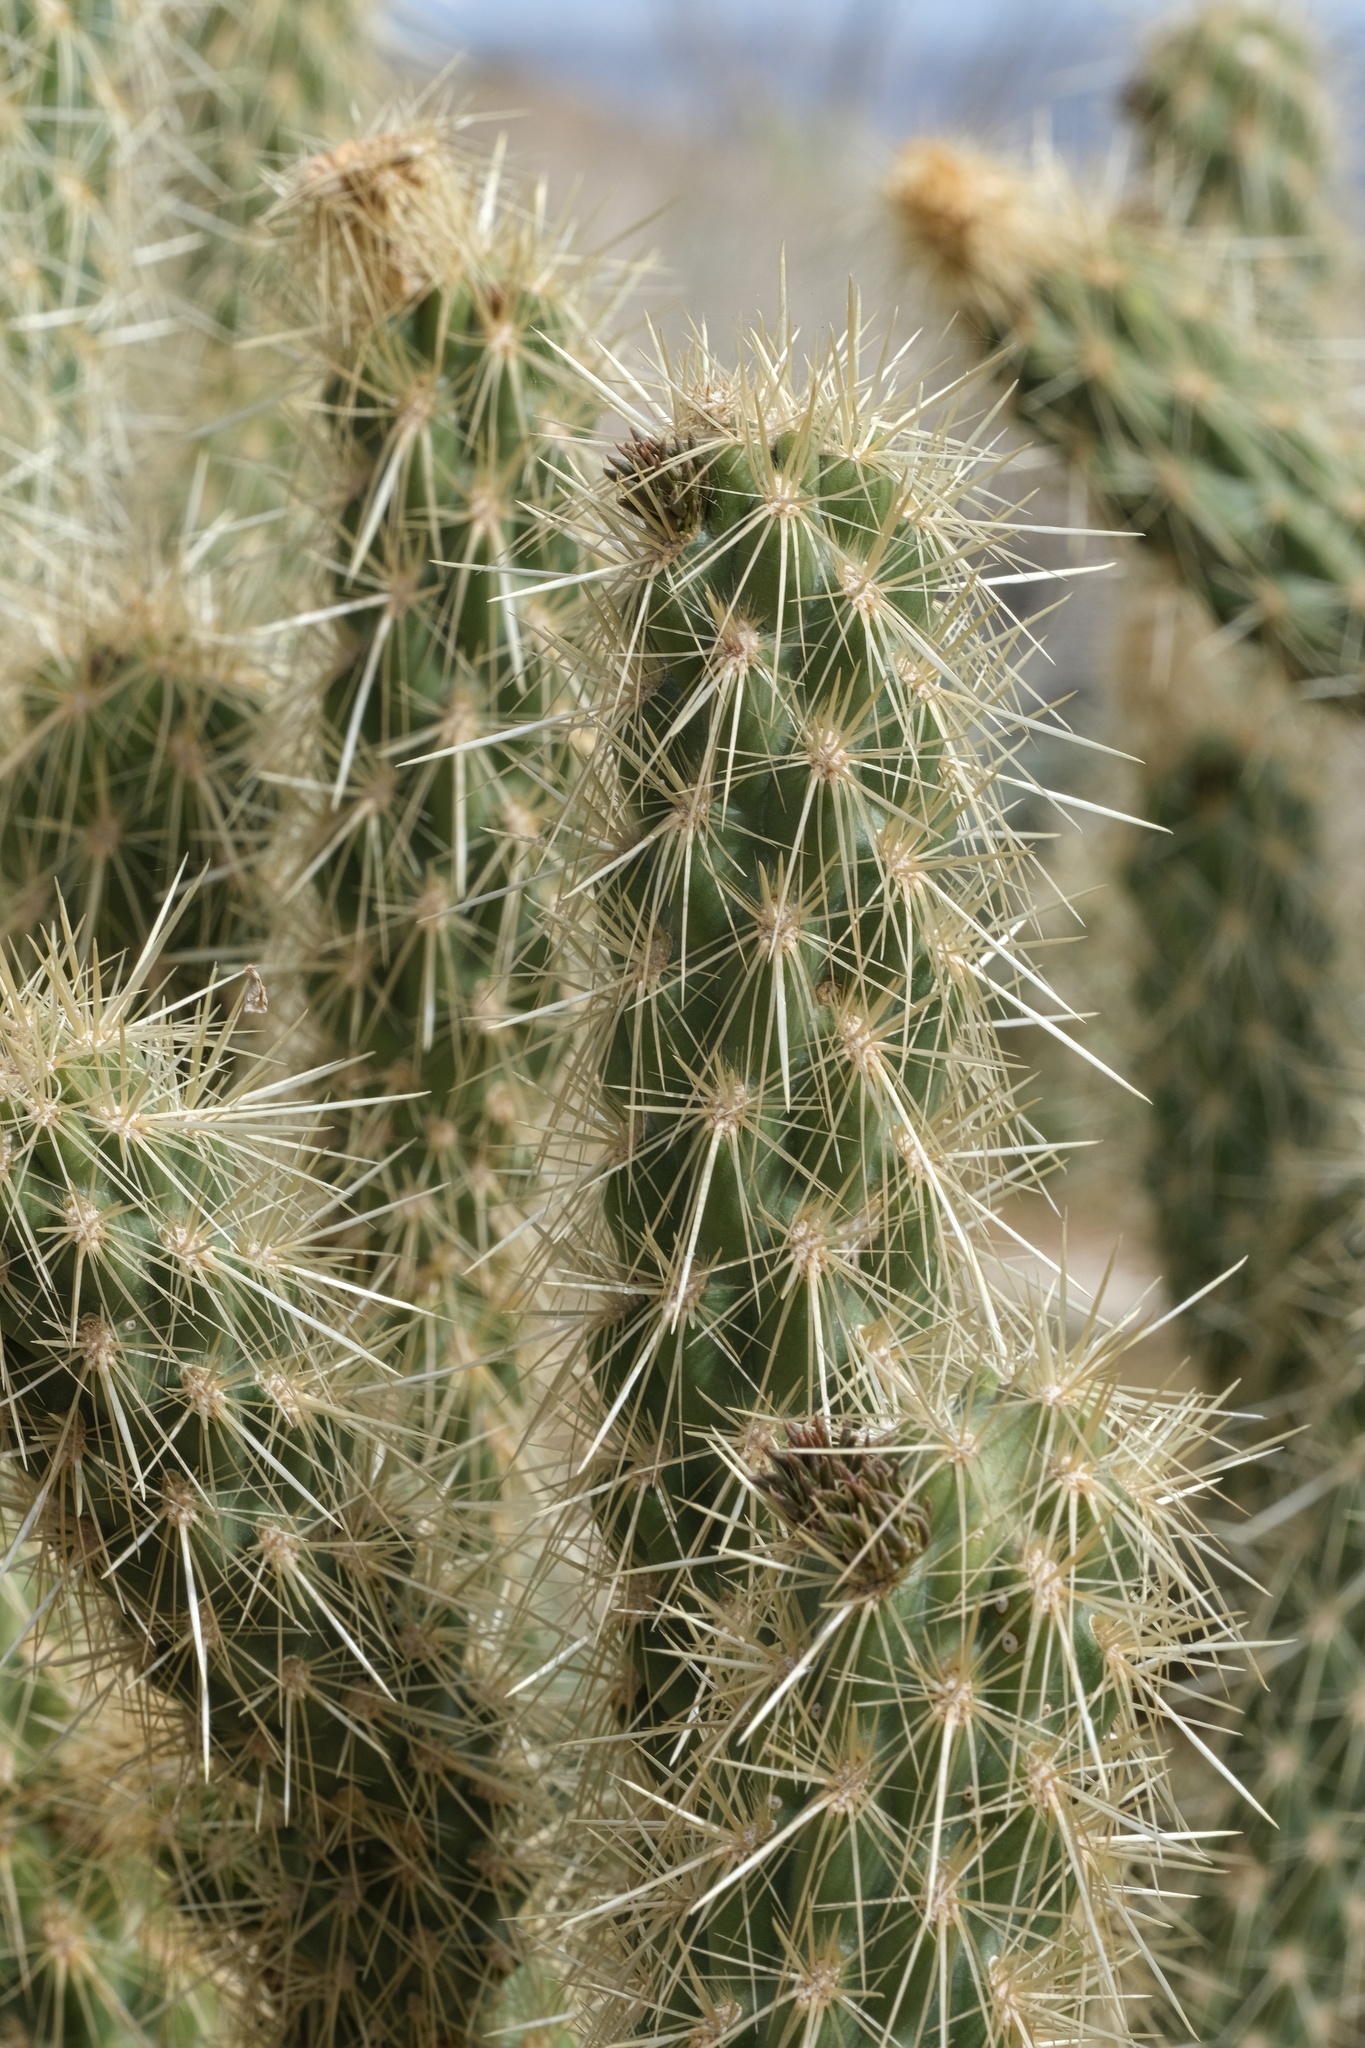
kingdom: Plantae
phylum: Tracheophyta
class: Magnoliopsida
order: Caryophyllales
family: Cactaceae
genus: Cylindropuntia
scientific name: Cylindropuntia ganderi
